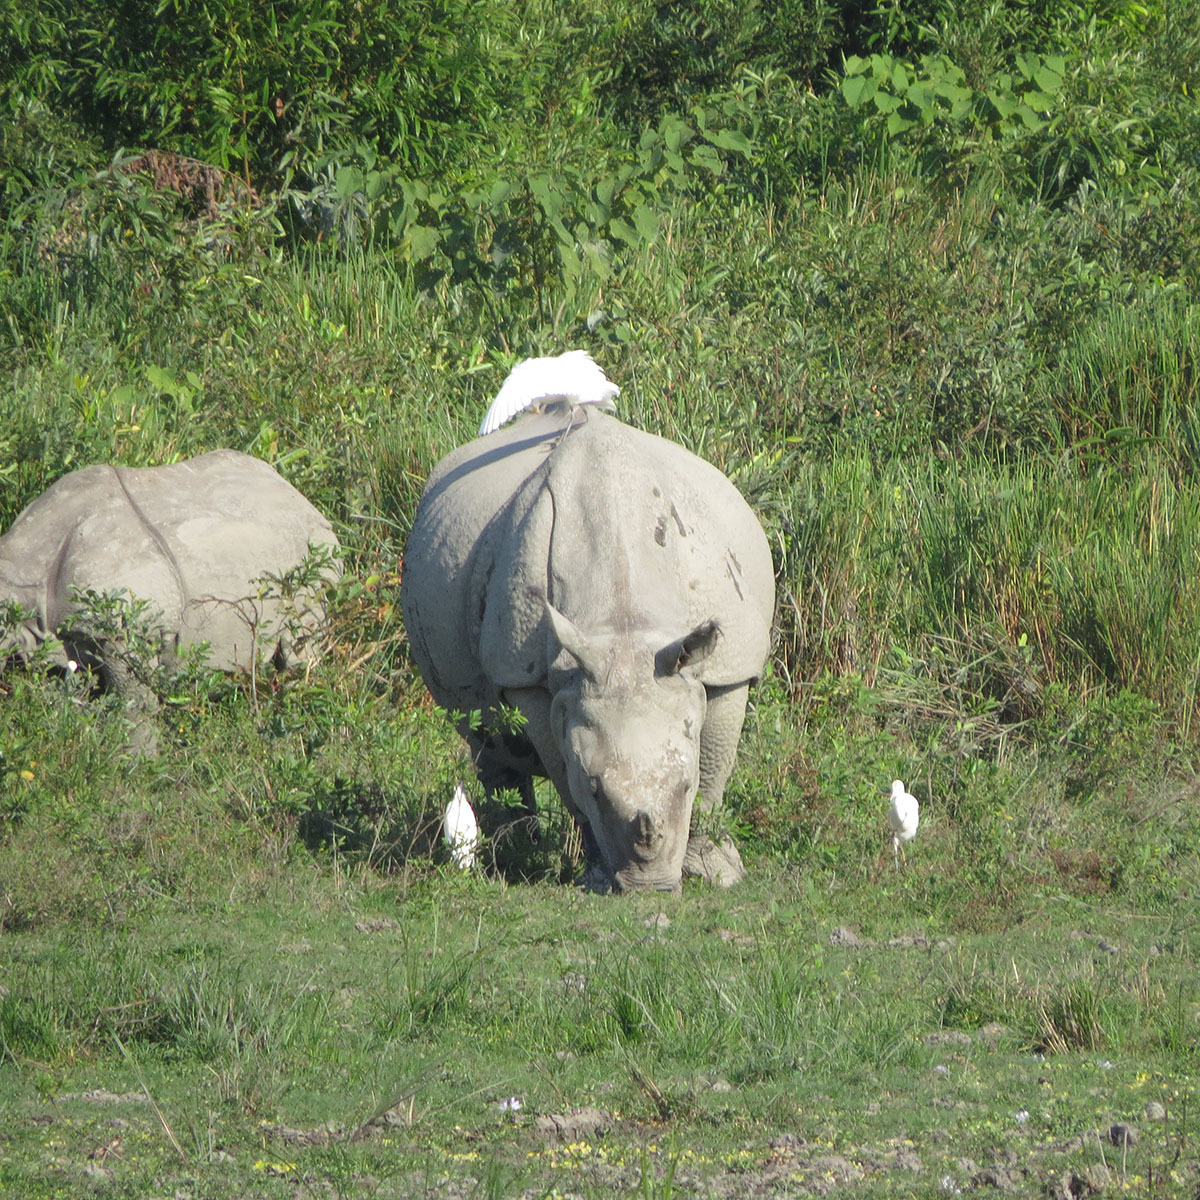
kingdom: Animalia
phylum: Chordata
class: Mammalia
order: Perissodactyla
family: Rhinocerotidae
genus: Rhinoceros
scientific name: Rhinoceros unicornis
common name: Indian rhinoceros
